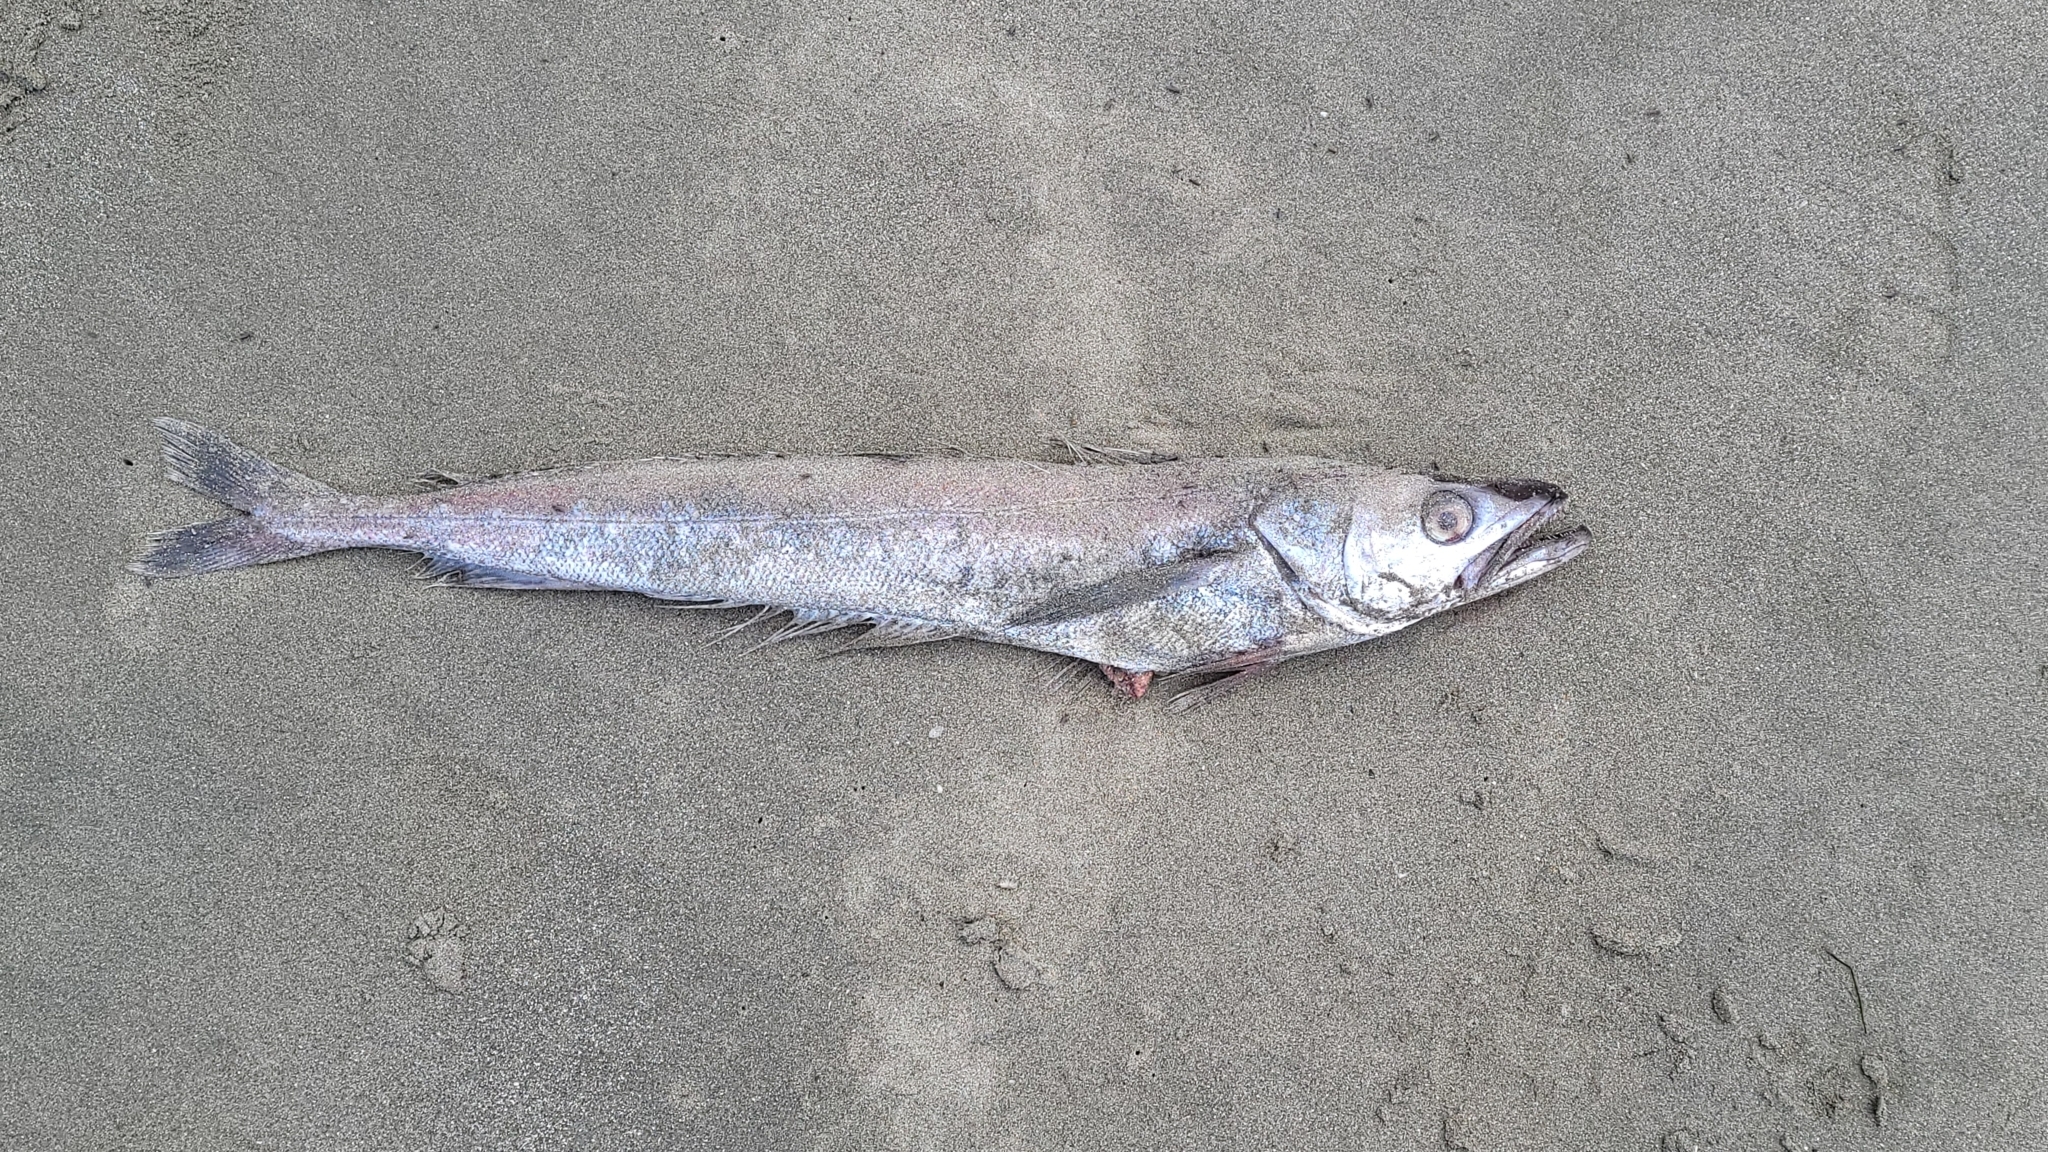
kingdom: Animalia
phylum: Chordata
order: Gadiformes
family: Merlucciidae
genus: Merluccius
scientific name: Merluccius productus
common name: Pacific hake
